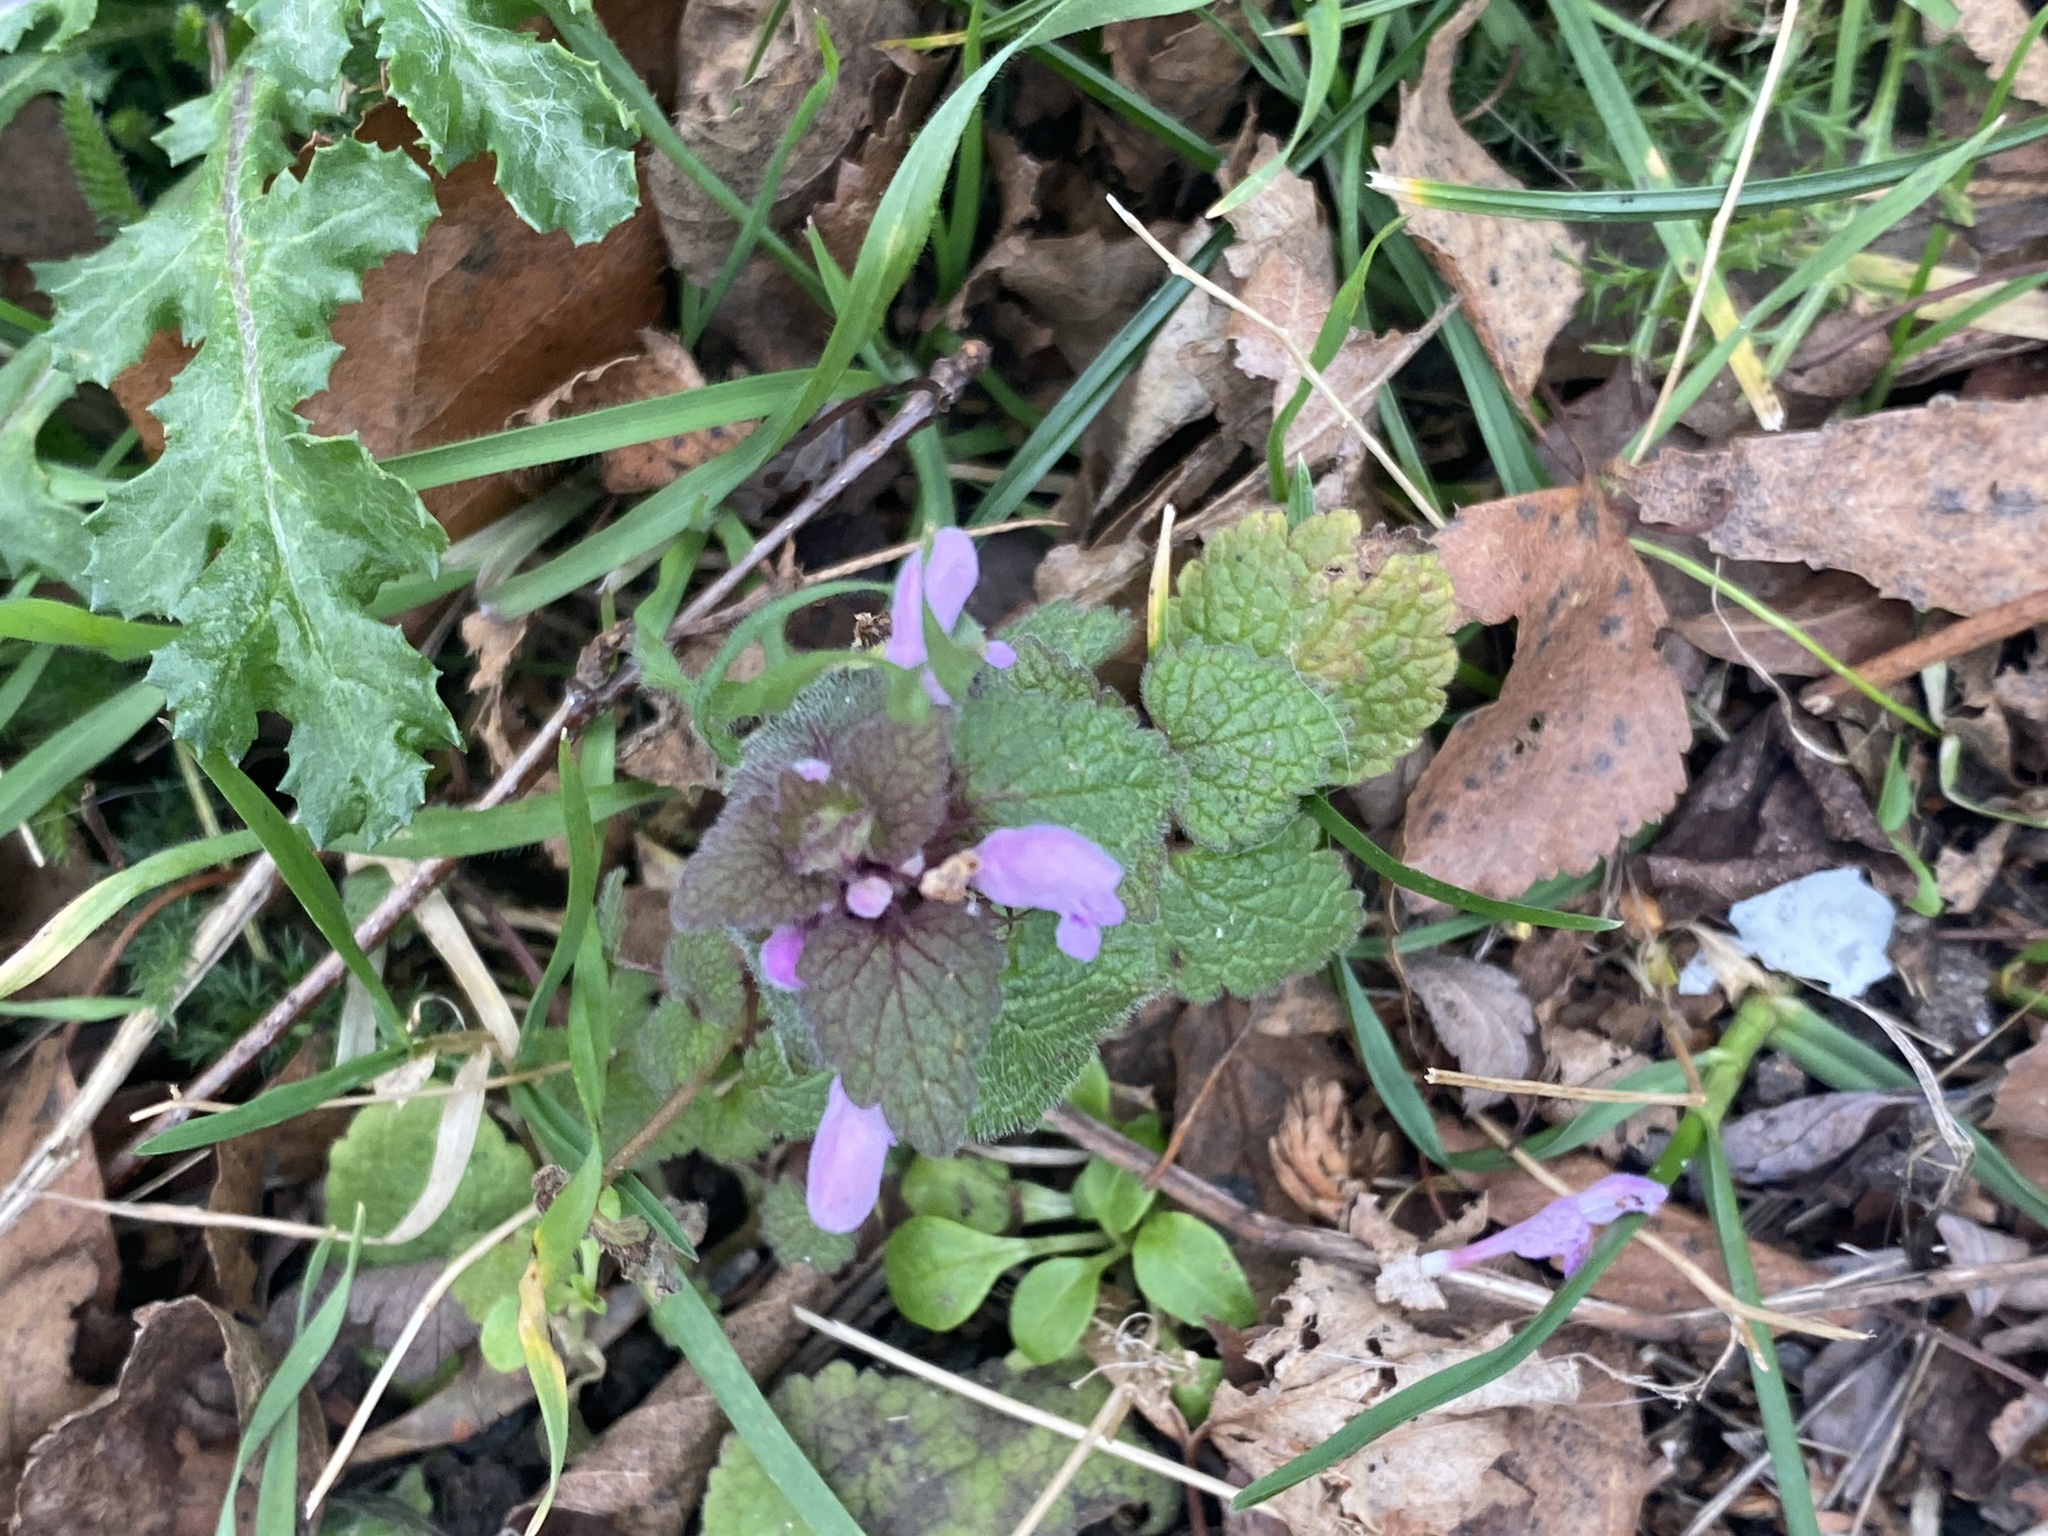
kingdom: Plantae
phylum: Tracheophyta
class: Magnoliopsida
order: Lamiales
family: Lamiaceae
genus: Lamium
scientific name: Lamium purpureum
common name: Red dead-nettle
